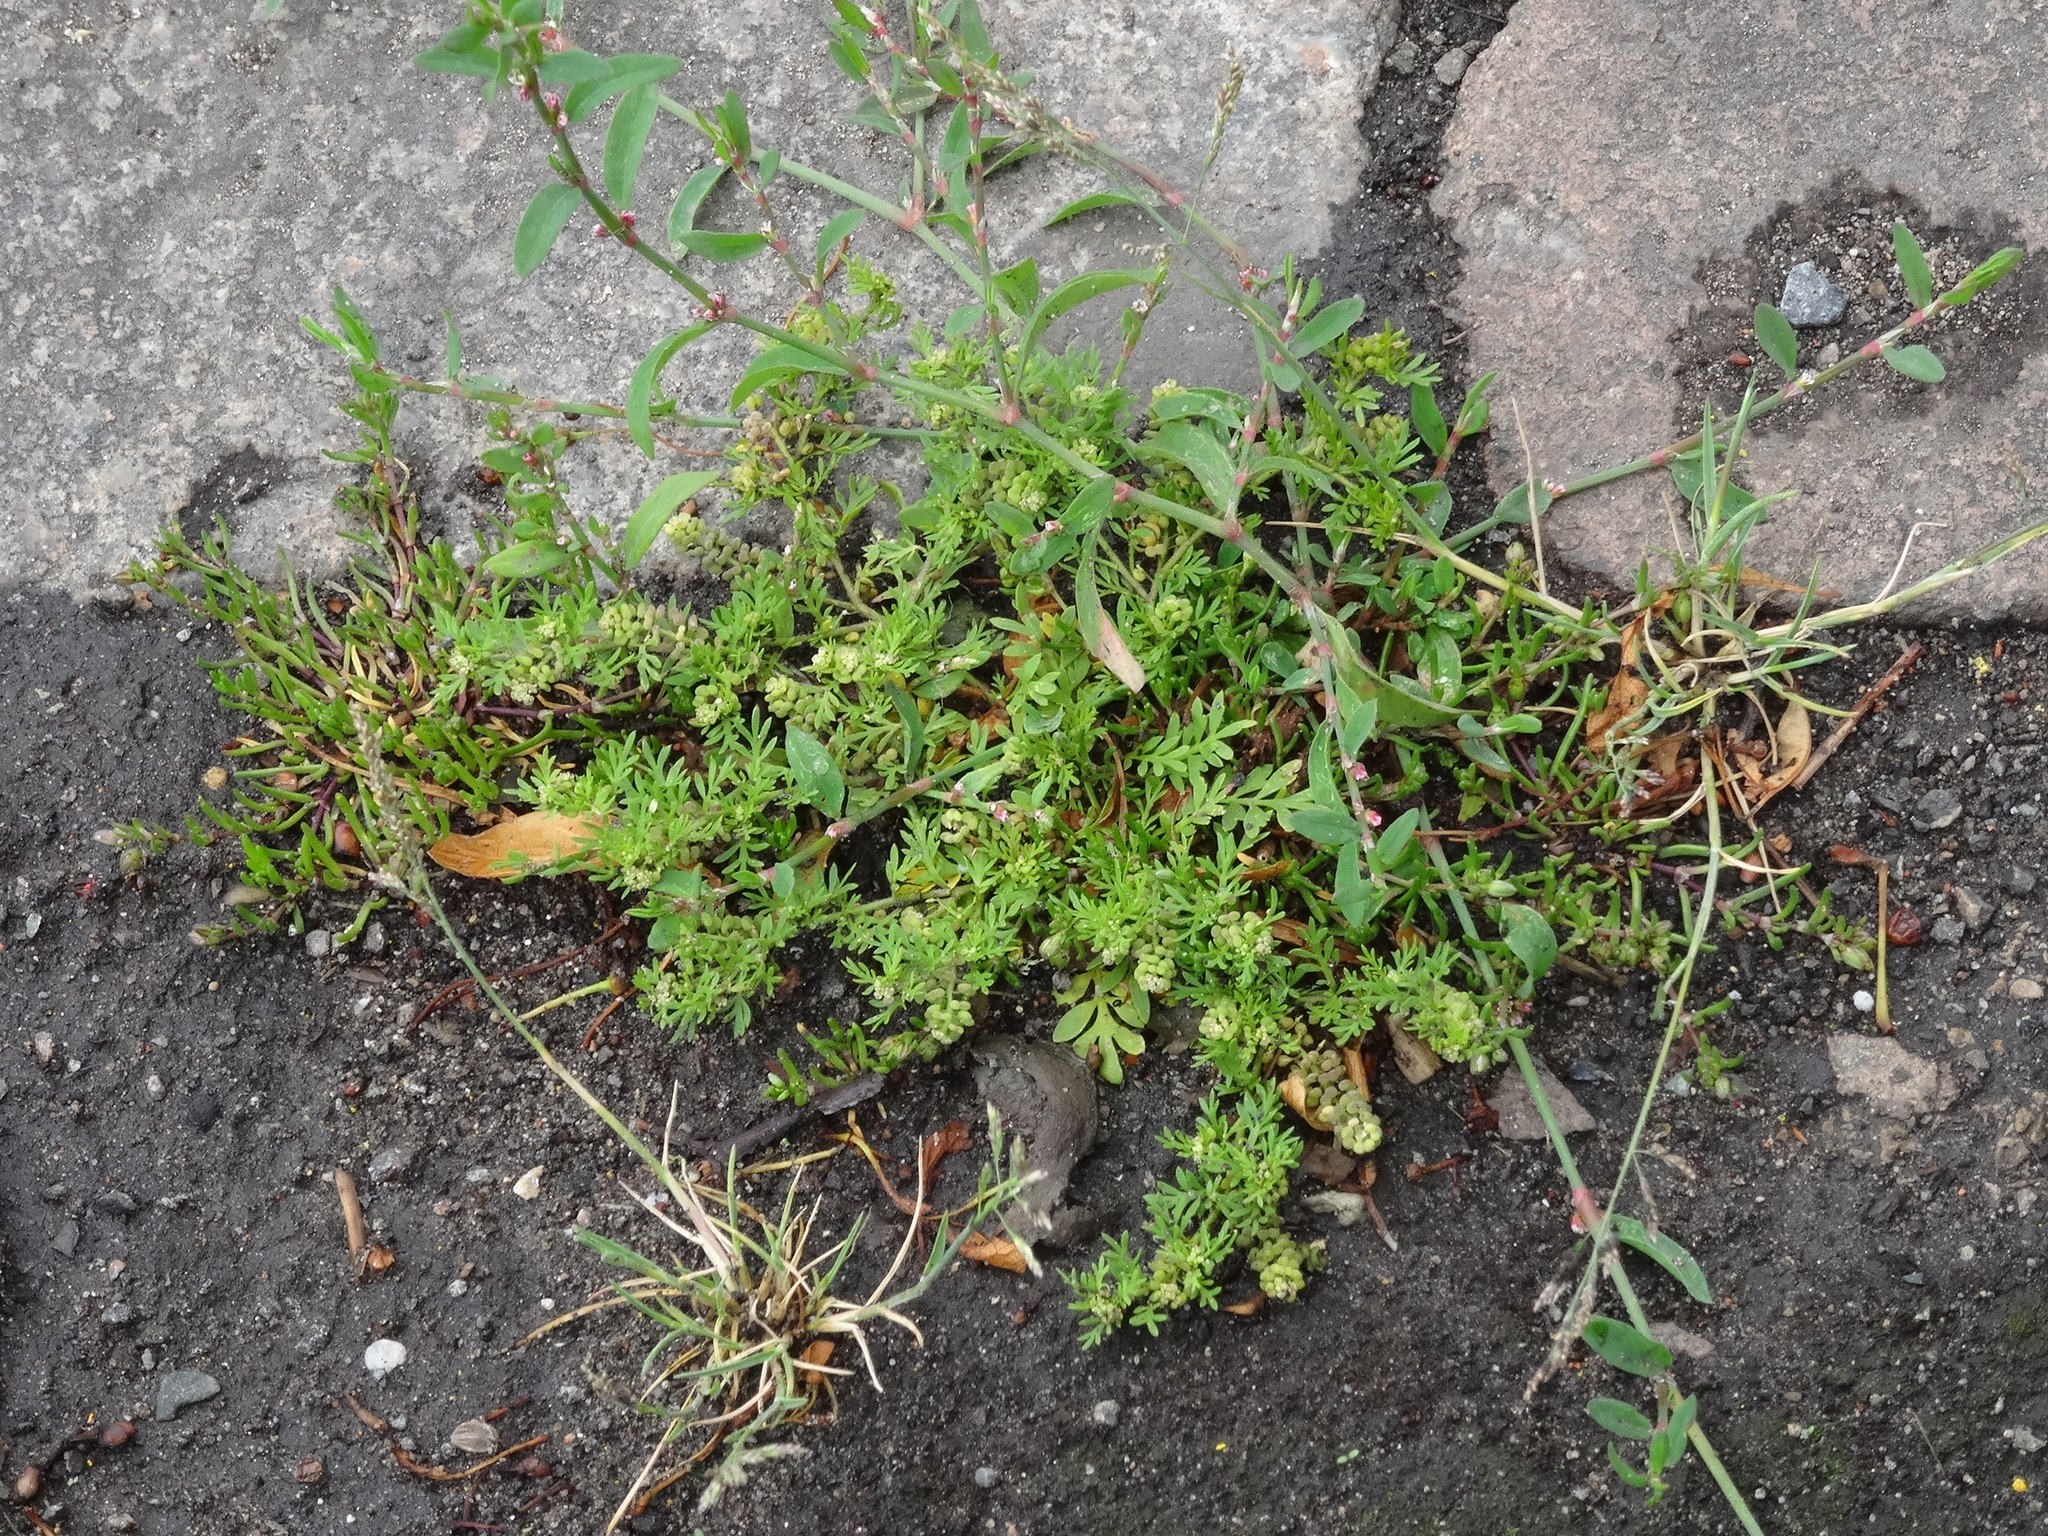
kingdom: Plantae
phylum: Tracheophyta
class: Magnoliopsida
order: Brassicales
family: Brassicaceae
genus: Lepidium
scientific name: Lepidium didymum
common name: Lesser swinecress
